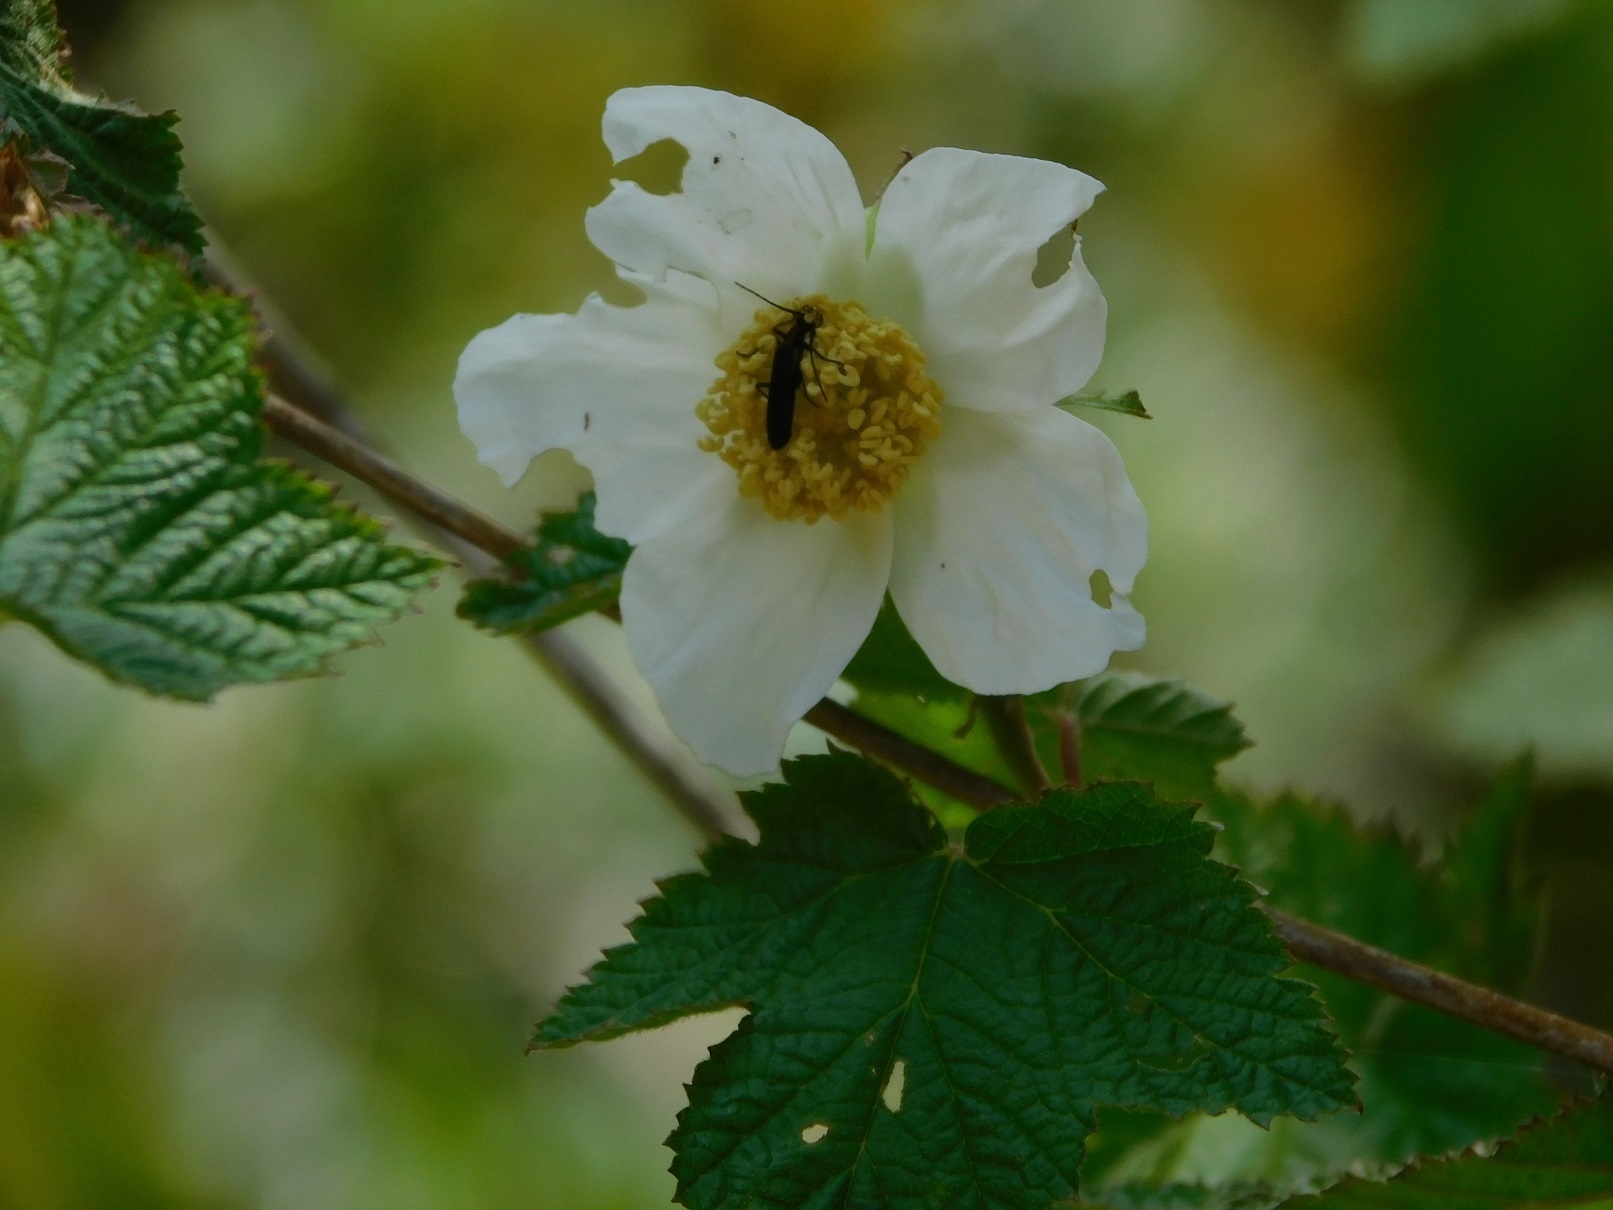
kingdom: Plantae
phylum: Tracheophyta
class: Magnoliopsida
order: Rosales
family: Rosaceae
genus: Rubus
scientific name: Rubus trilobus
